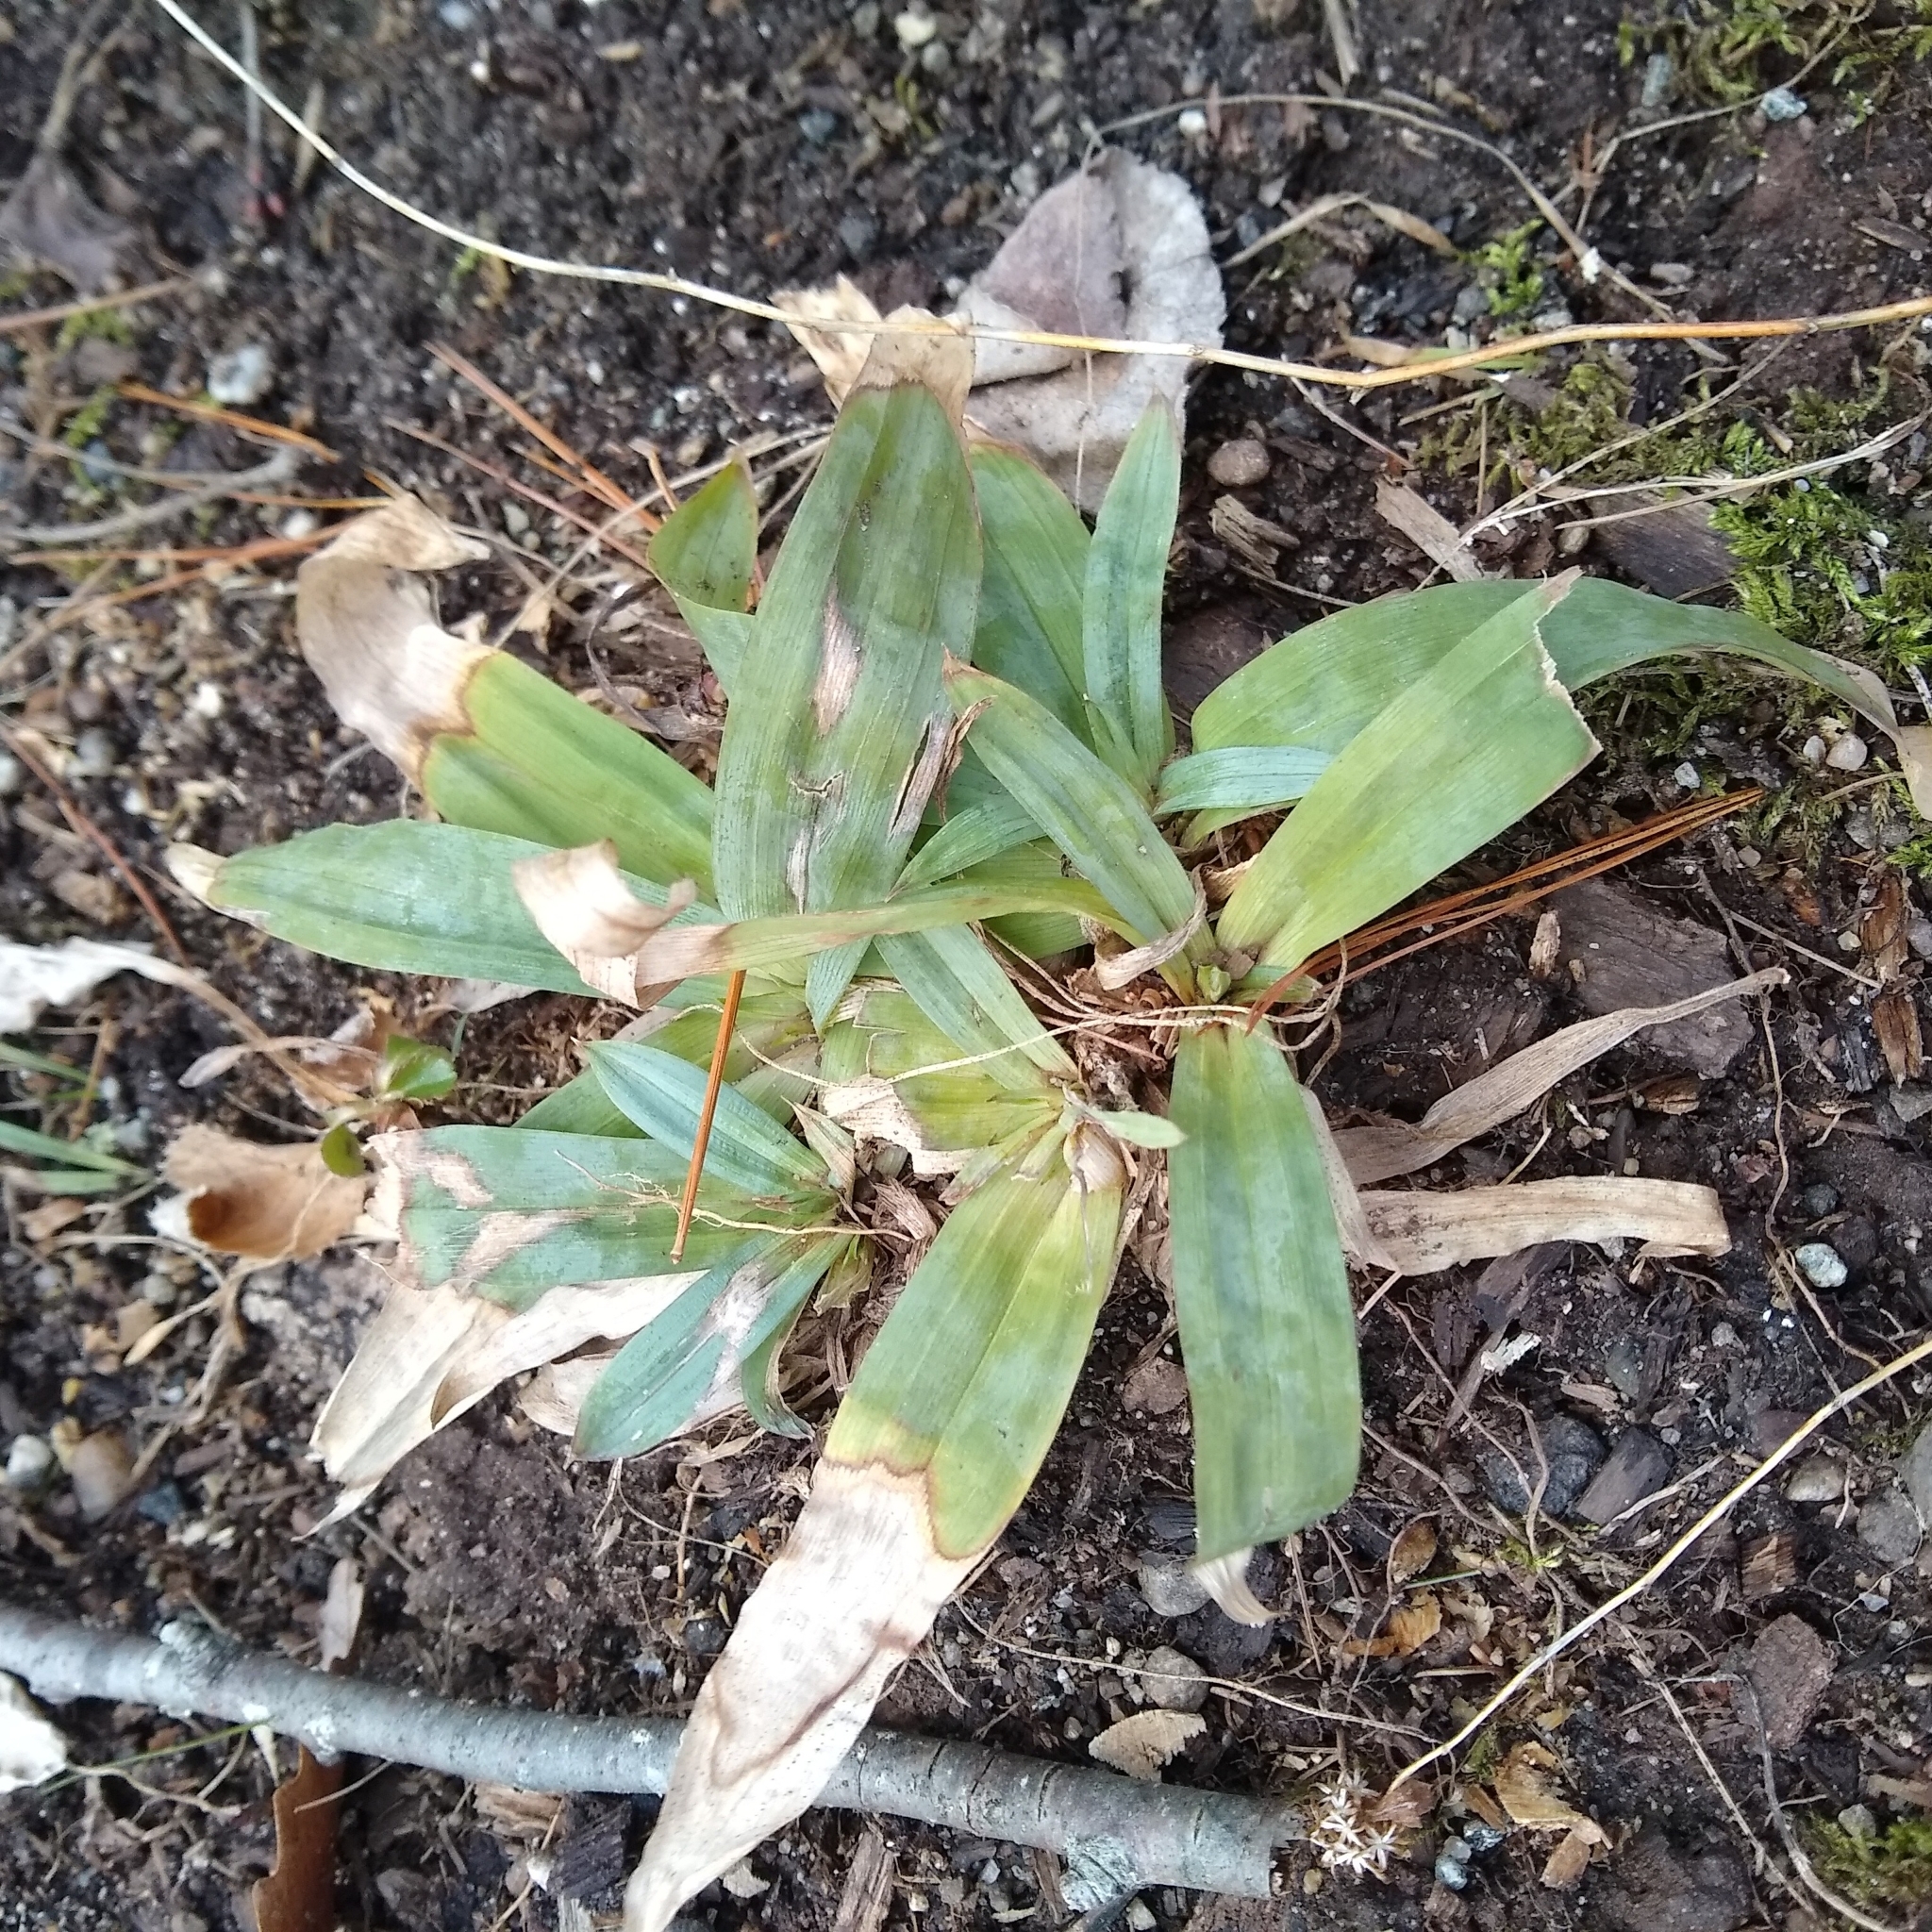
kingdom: Plantae
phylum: Tracheophyta
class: Liliopsida
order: Poales
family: Cyperaceae
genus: Carex
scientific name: Carex platyphylla
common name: Broad-leaved sedge
